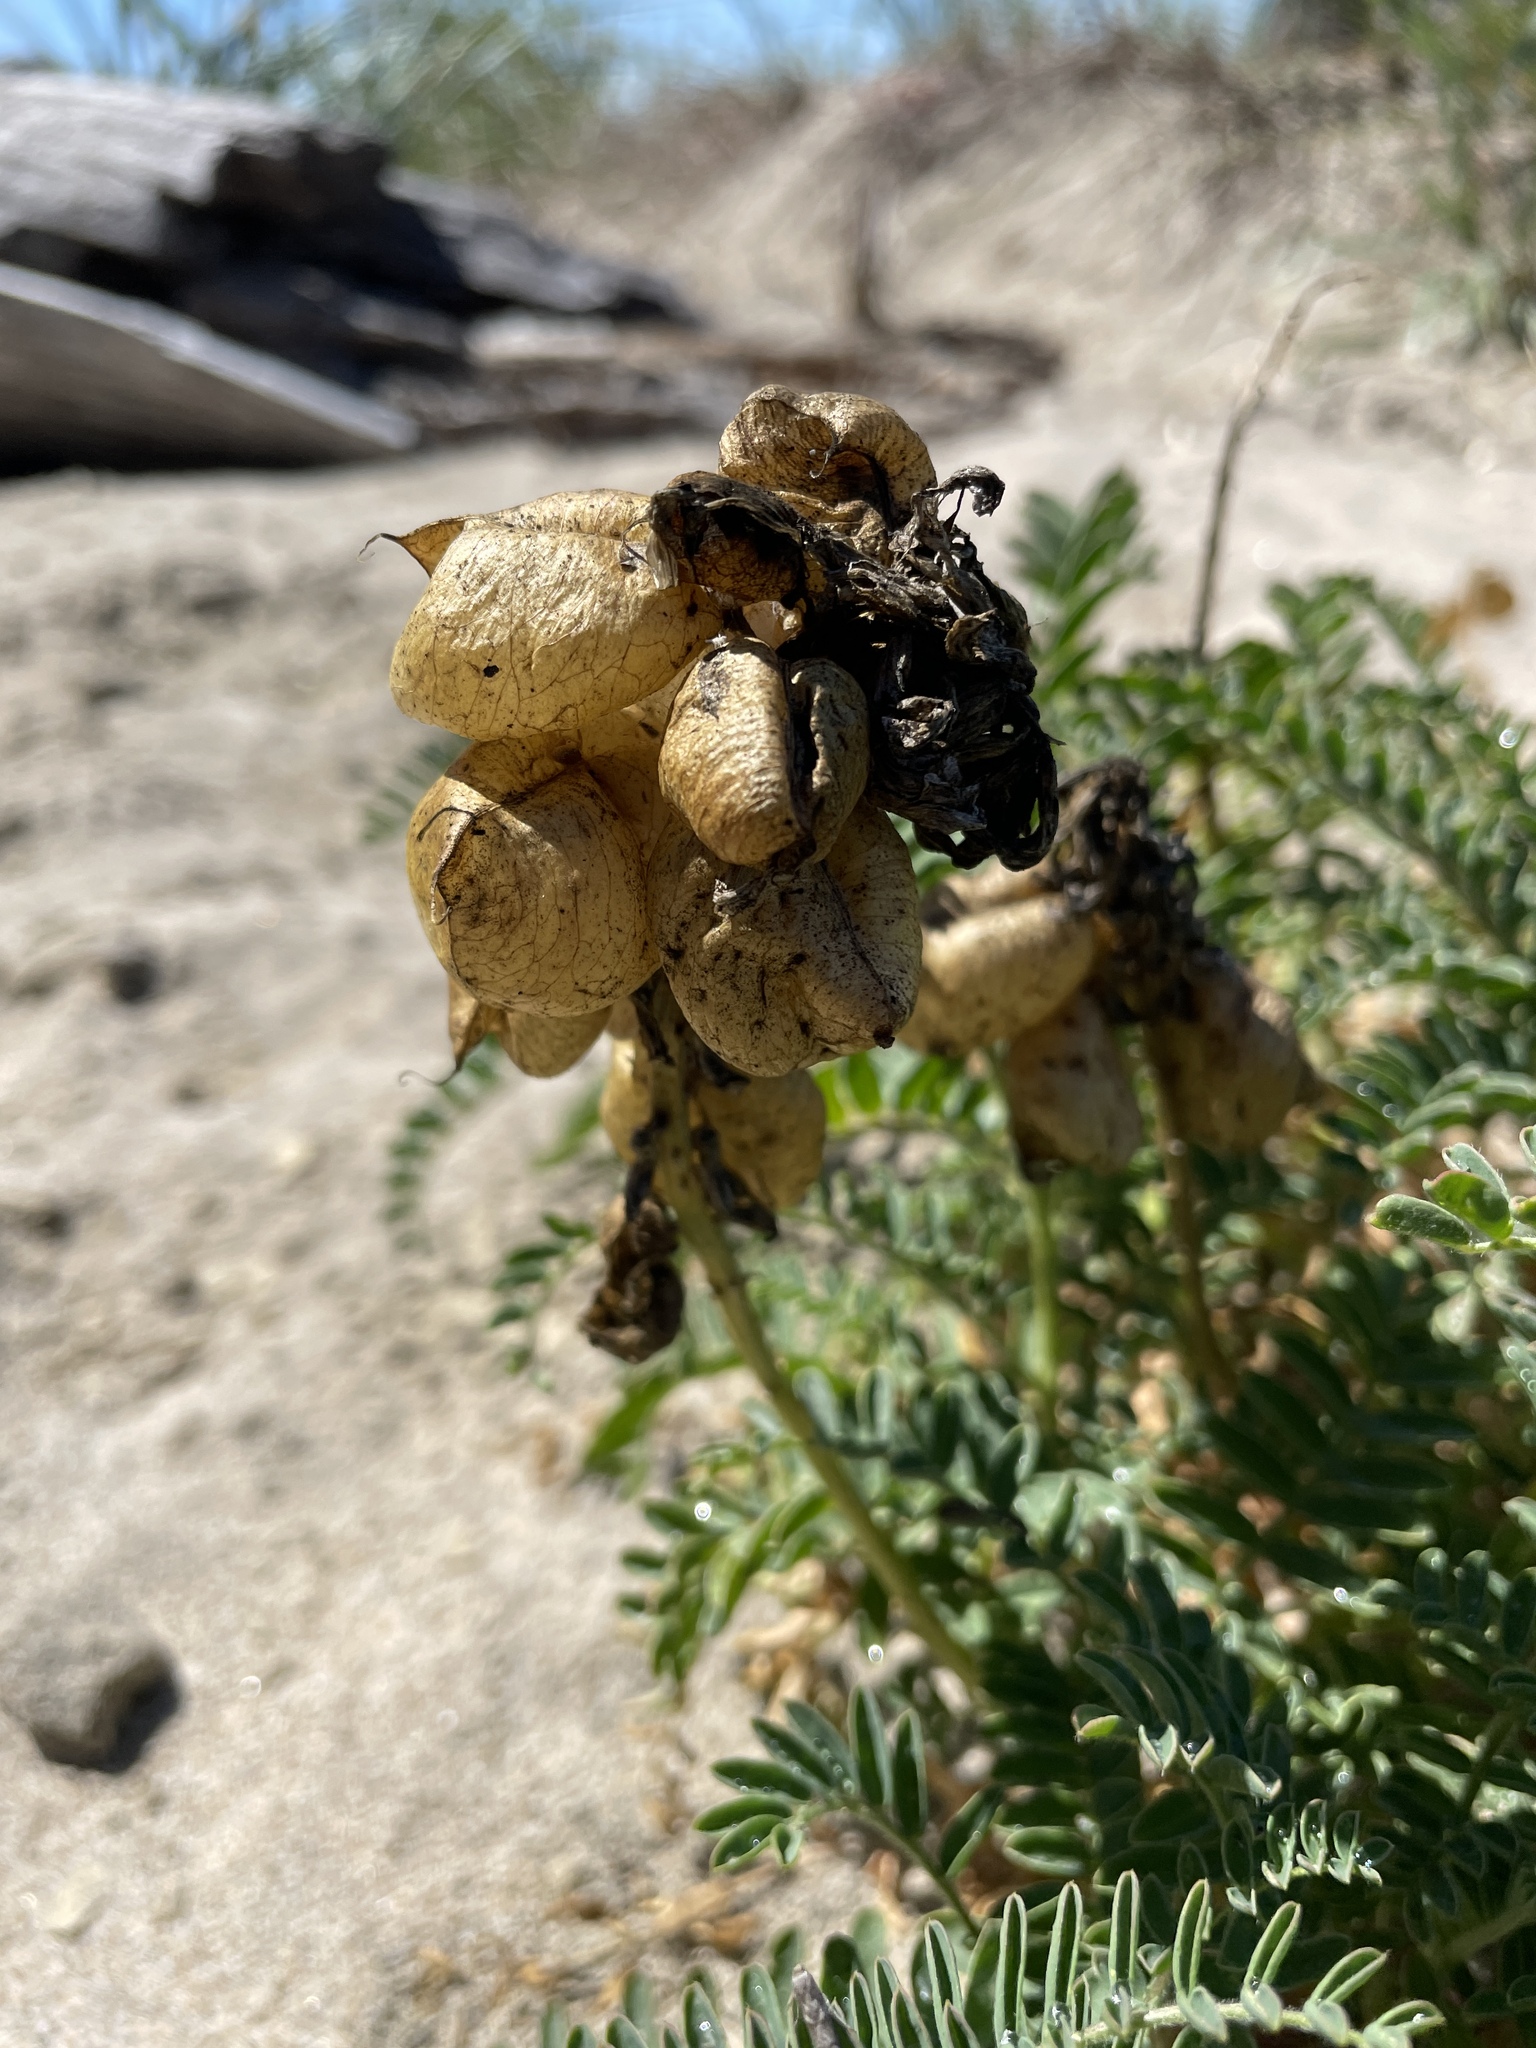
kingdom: Plantae
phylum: Tracheophyta
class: Magnoliopsida
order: Fabales
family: Fabaceae
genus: Astragalus
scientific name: Astragalus nuttallii
